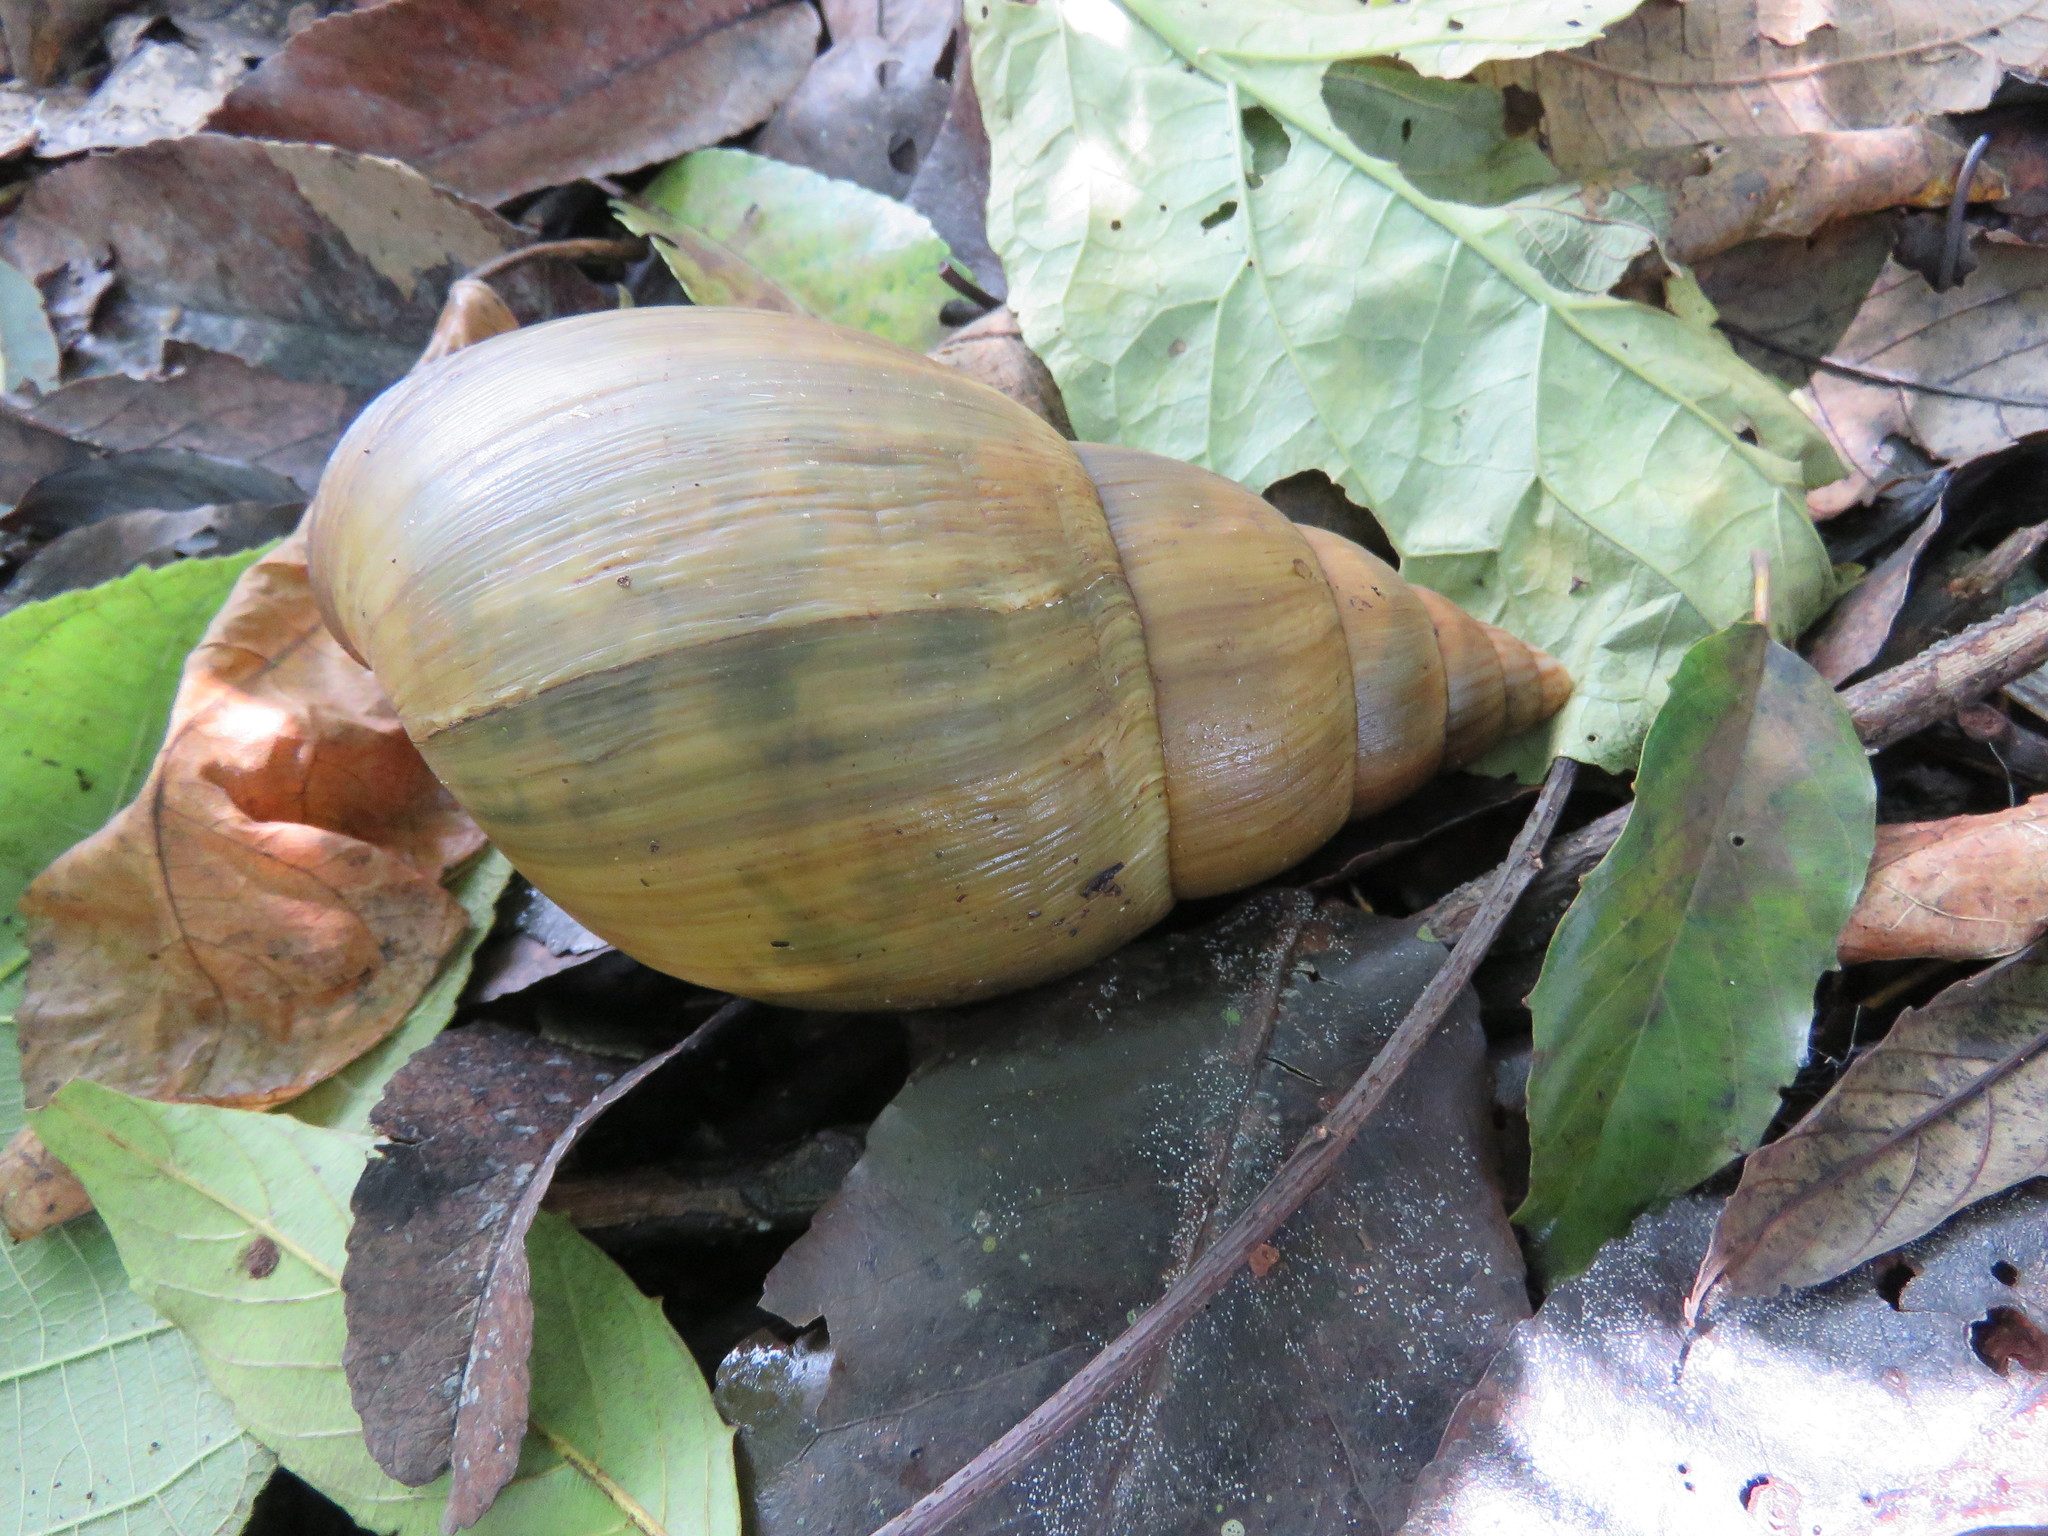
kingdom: Animalia
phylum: Mollusca
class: Gastropoda
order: Stylommatophora
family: Achatinidae
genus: Achatina
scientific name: Achatina stuhlmanni
